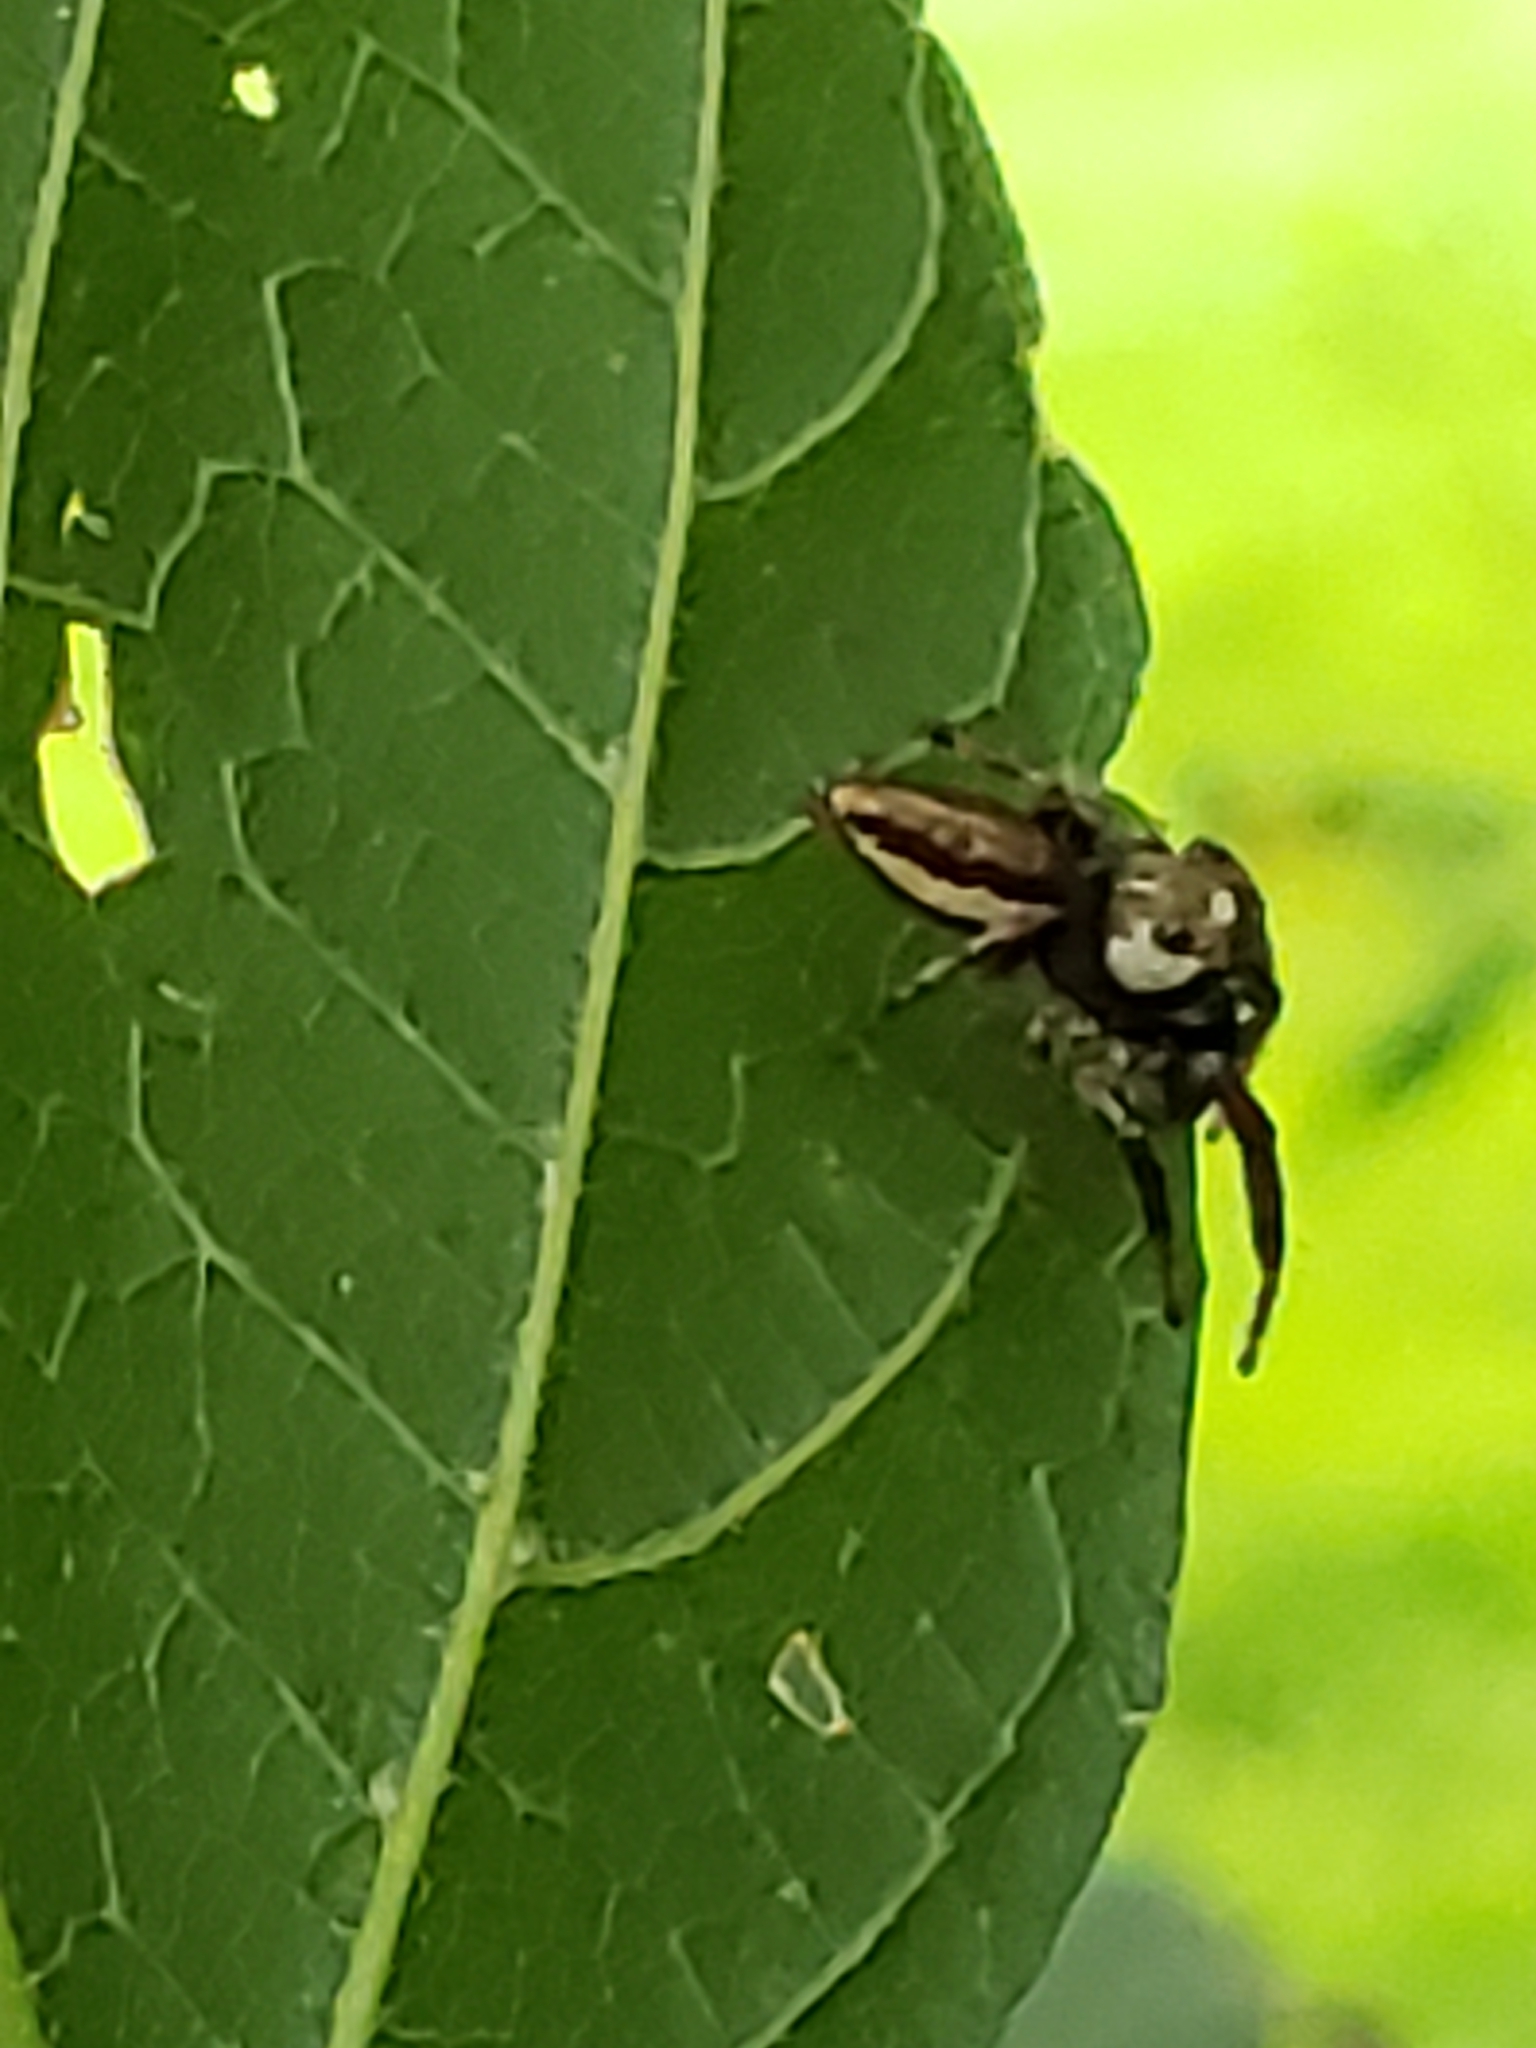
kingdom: Animalia
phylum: Arthropoda
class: Arachnida
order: Araneae
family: Salticidae
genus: Eris
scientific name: Eris militaris
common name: Bronze jumper
